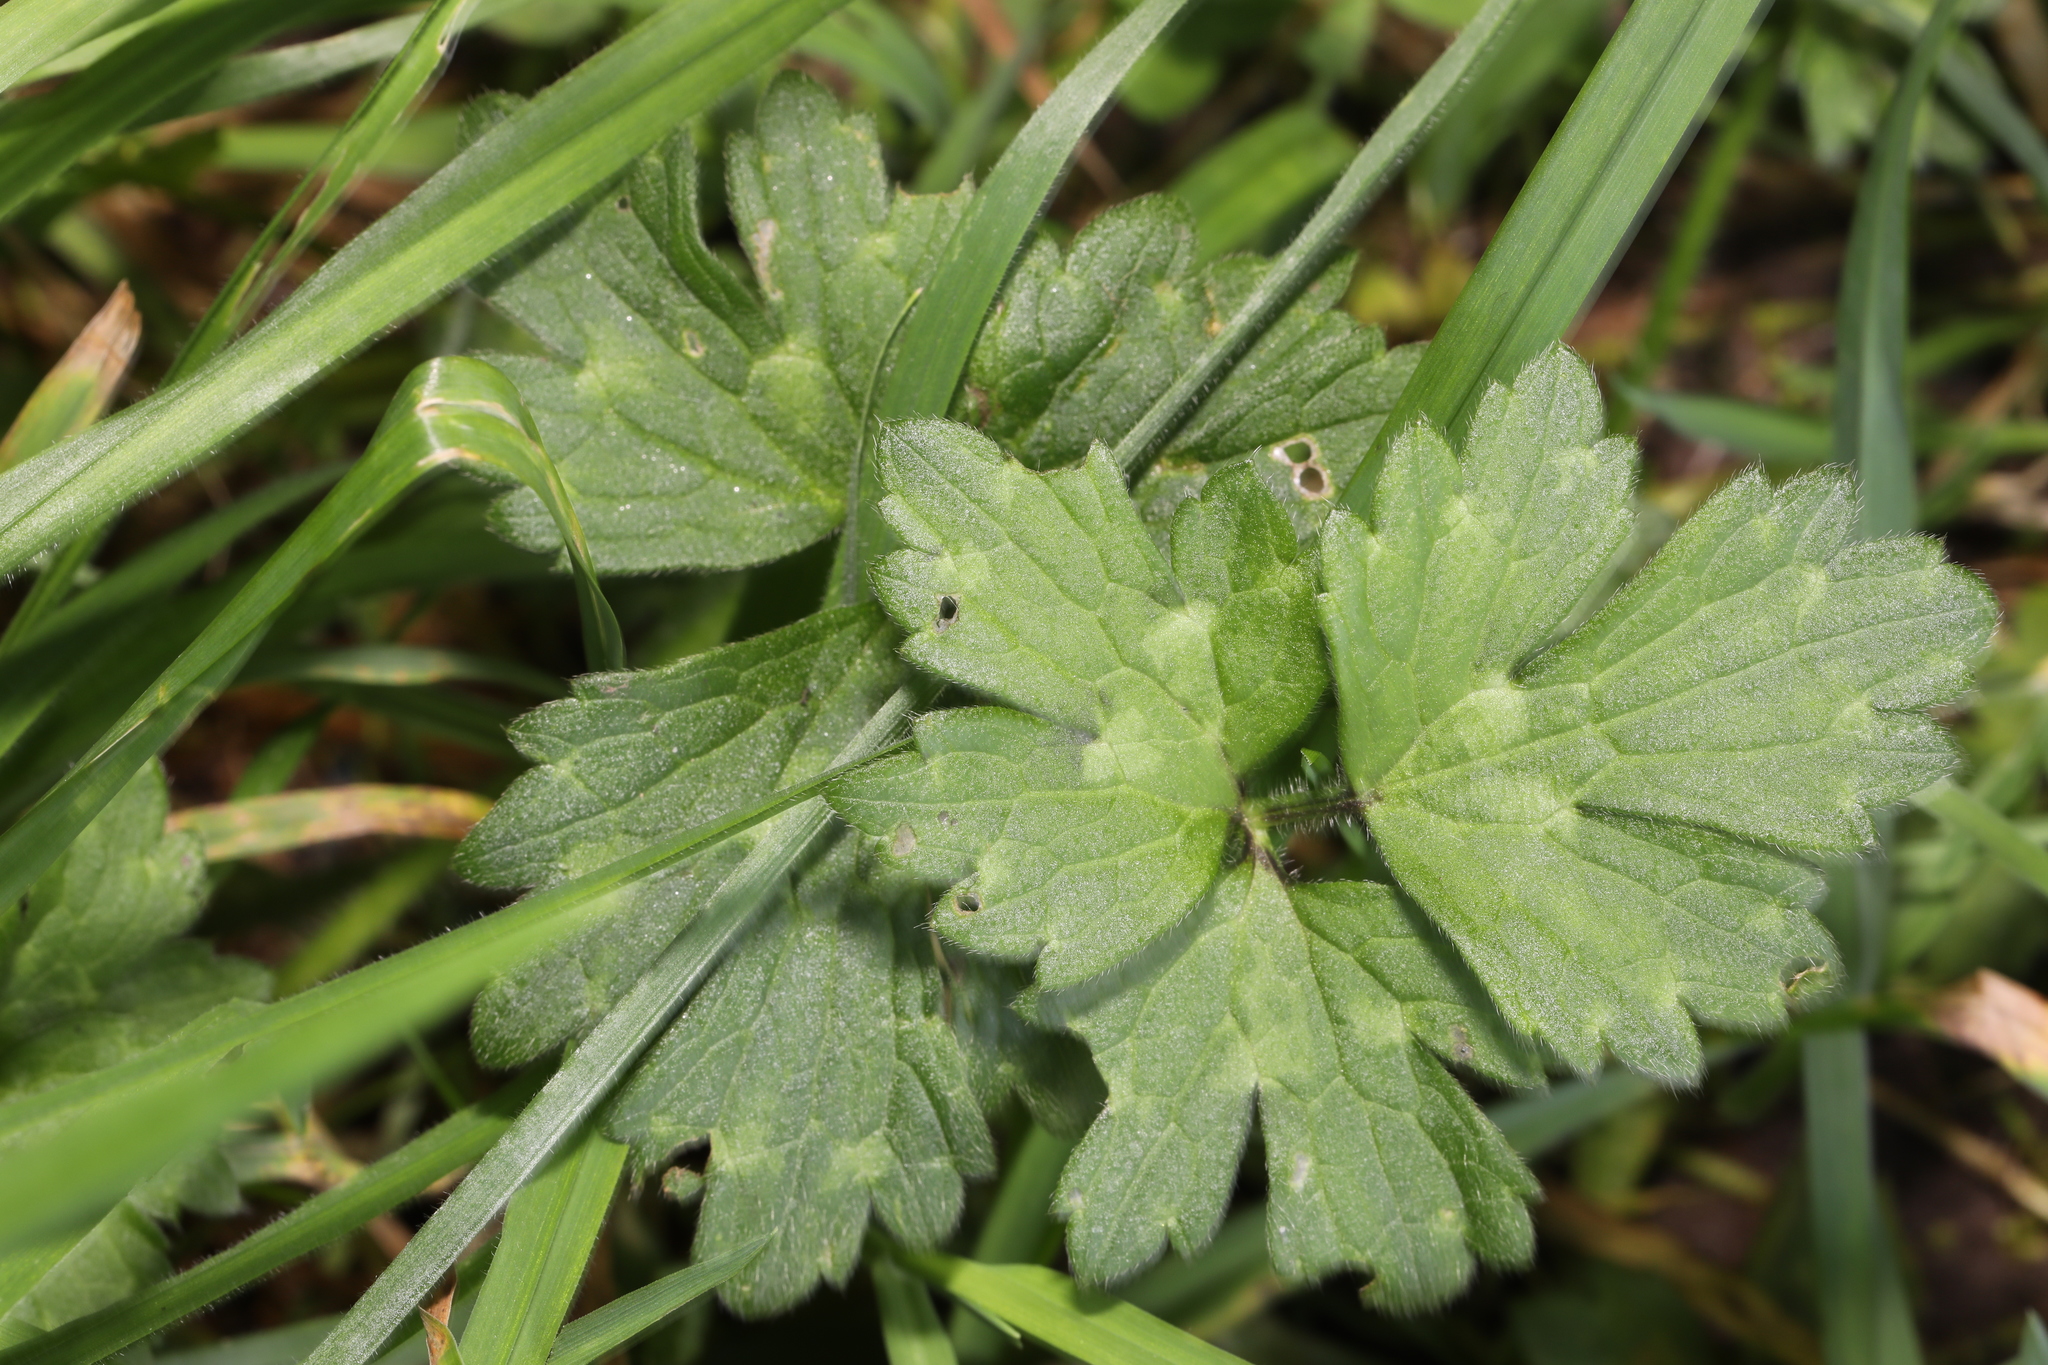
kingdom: Plantae
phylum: Tracheophyta
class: Magnoliopsida
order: Ranunculales
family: Ranunculaceae
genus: Ranunculus
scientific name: Ranunculus repens
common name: Creeping buttercup
